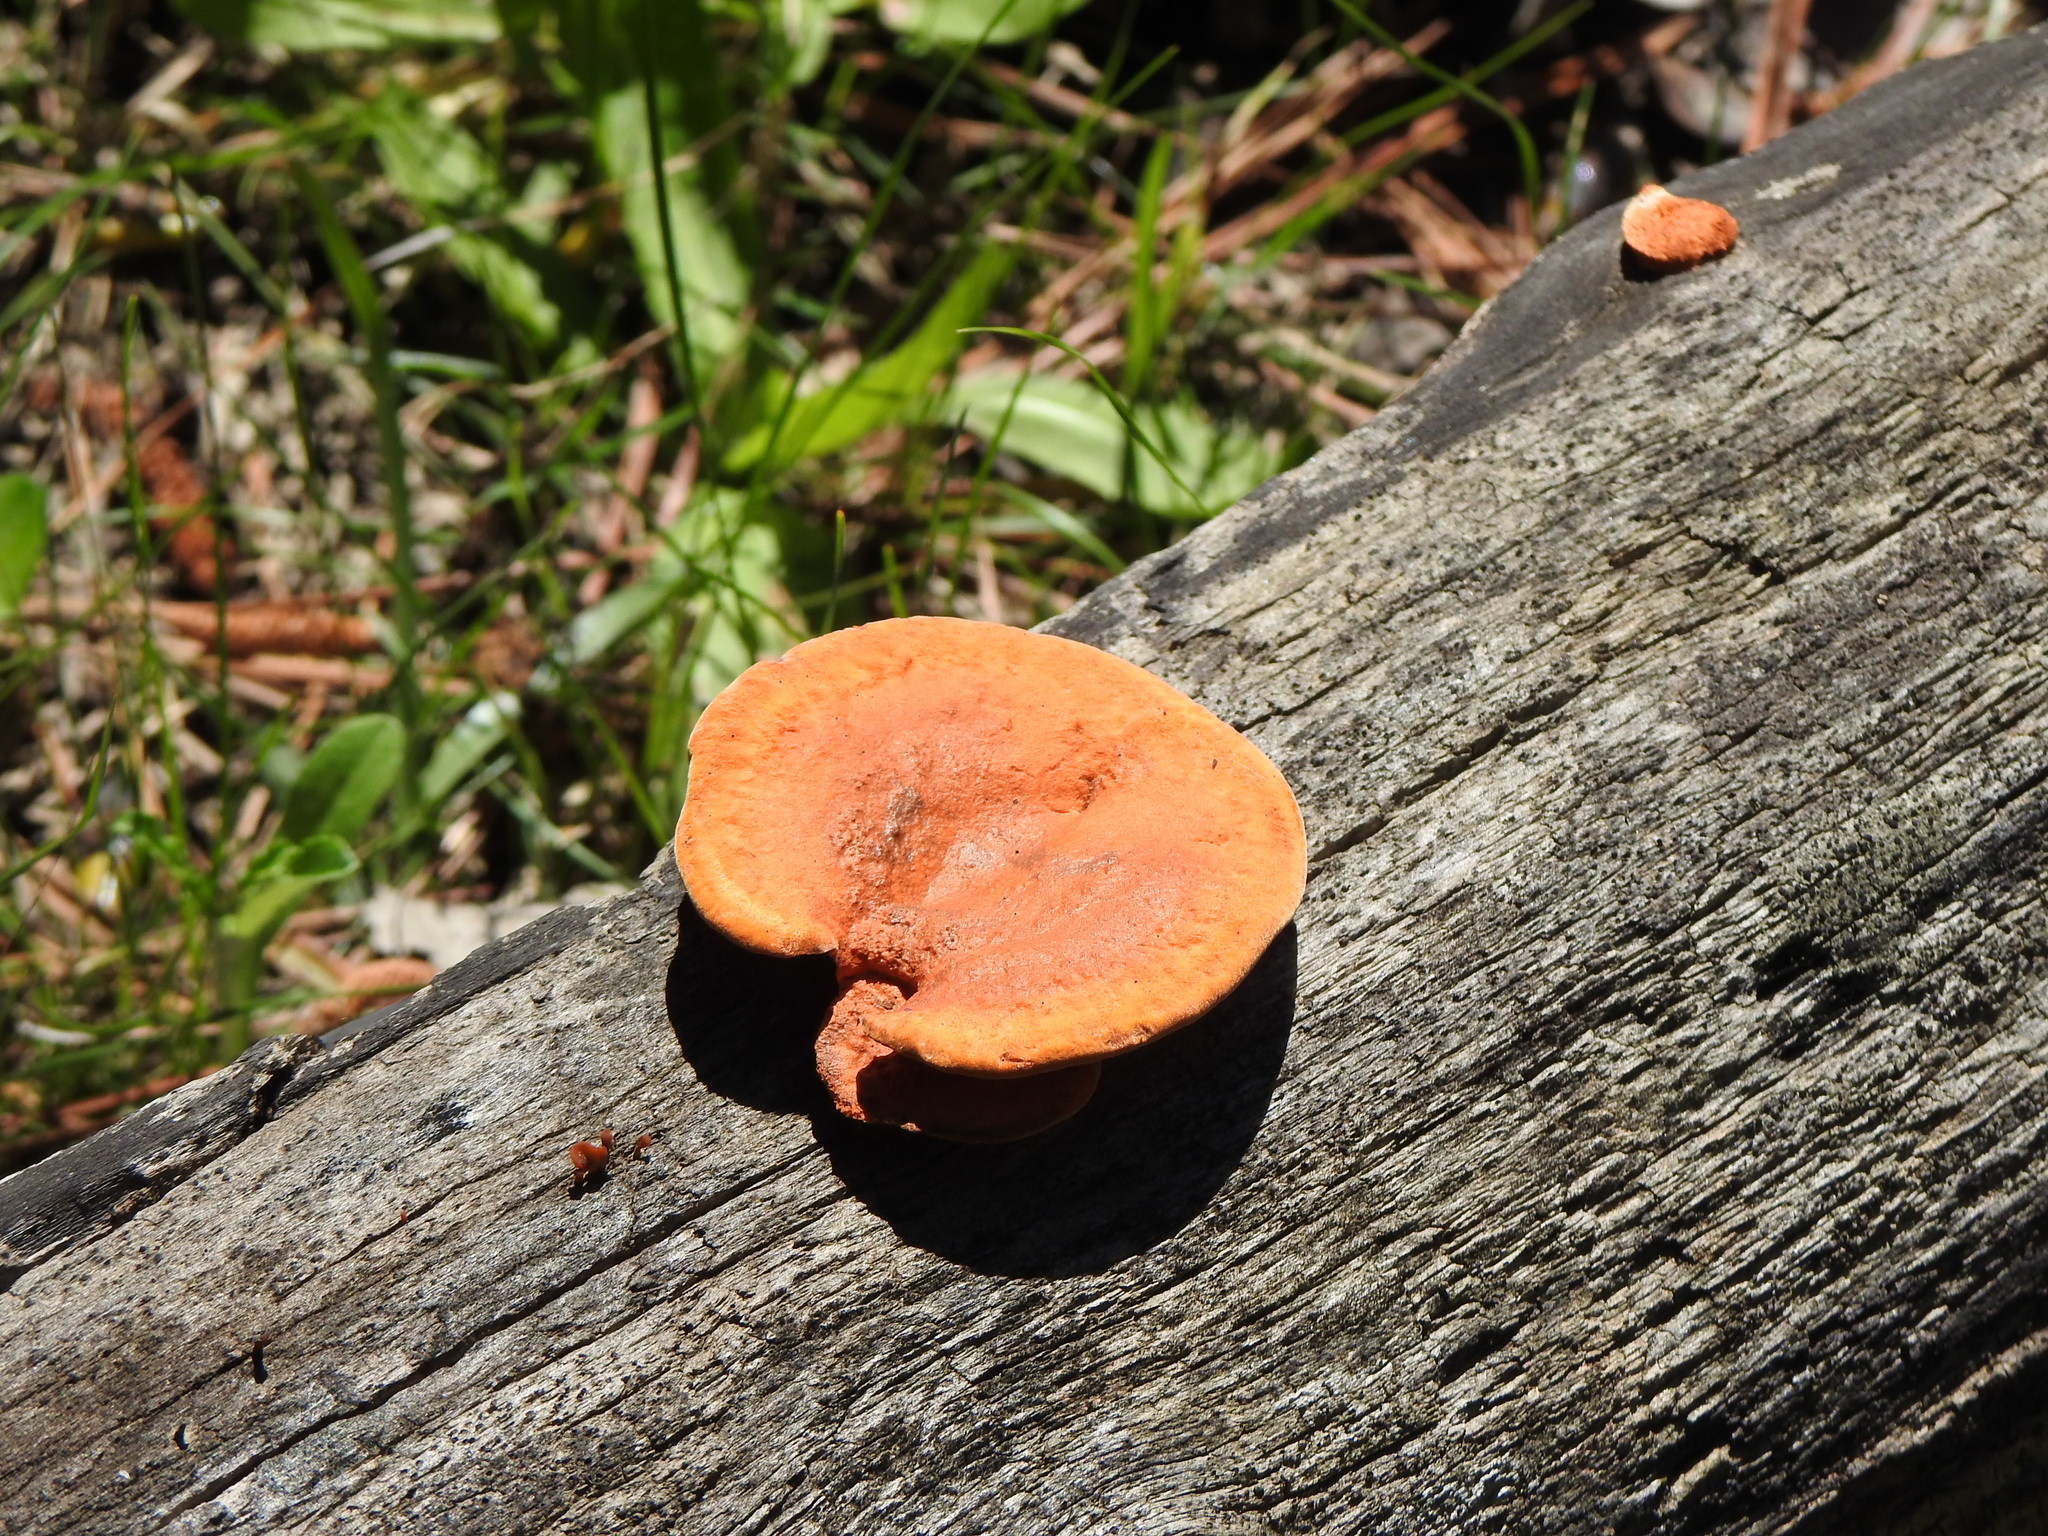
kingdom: Fungi
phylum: Basidiomycota
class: Agaricomycetes
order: Polyporales
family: Polyporaceae
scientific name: Polyporaceae
